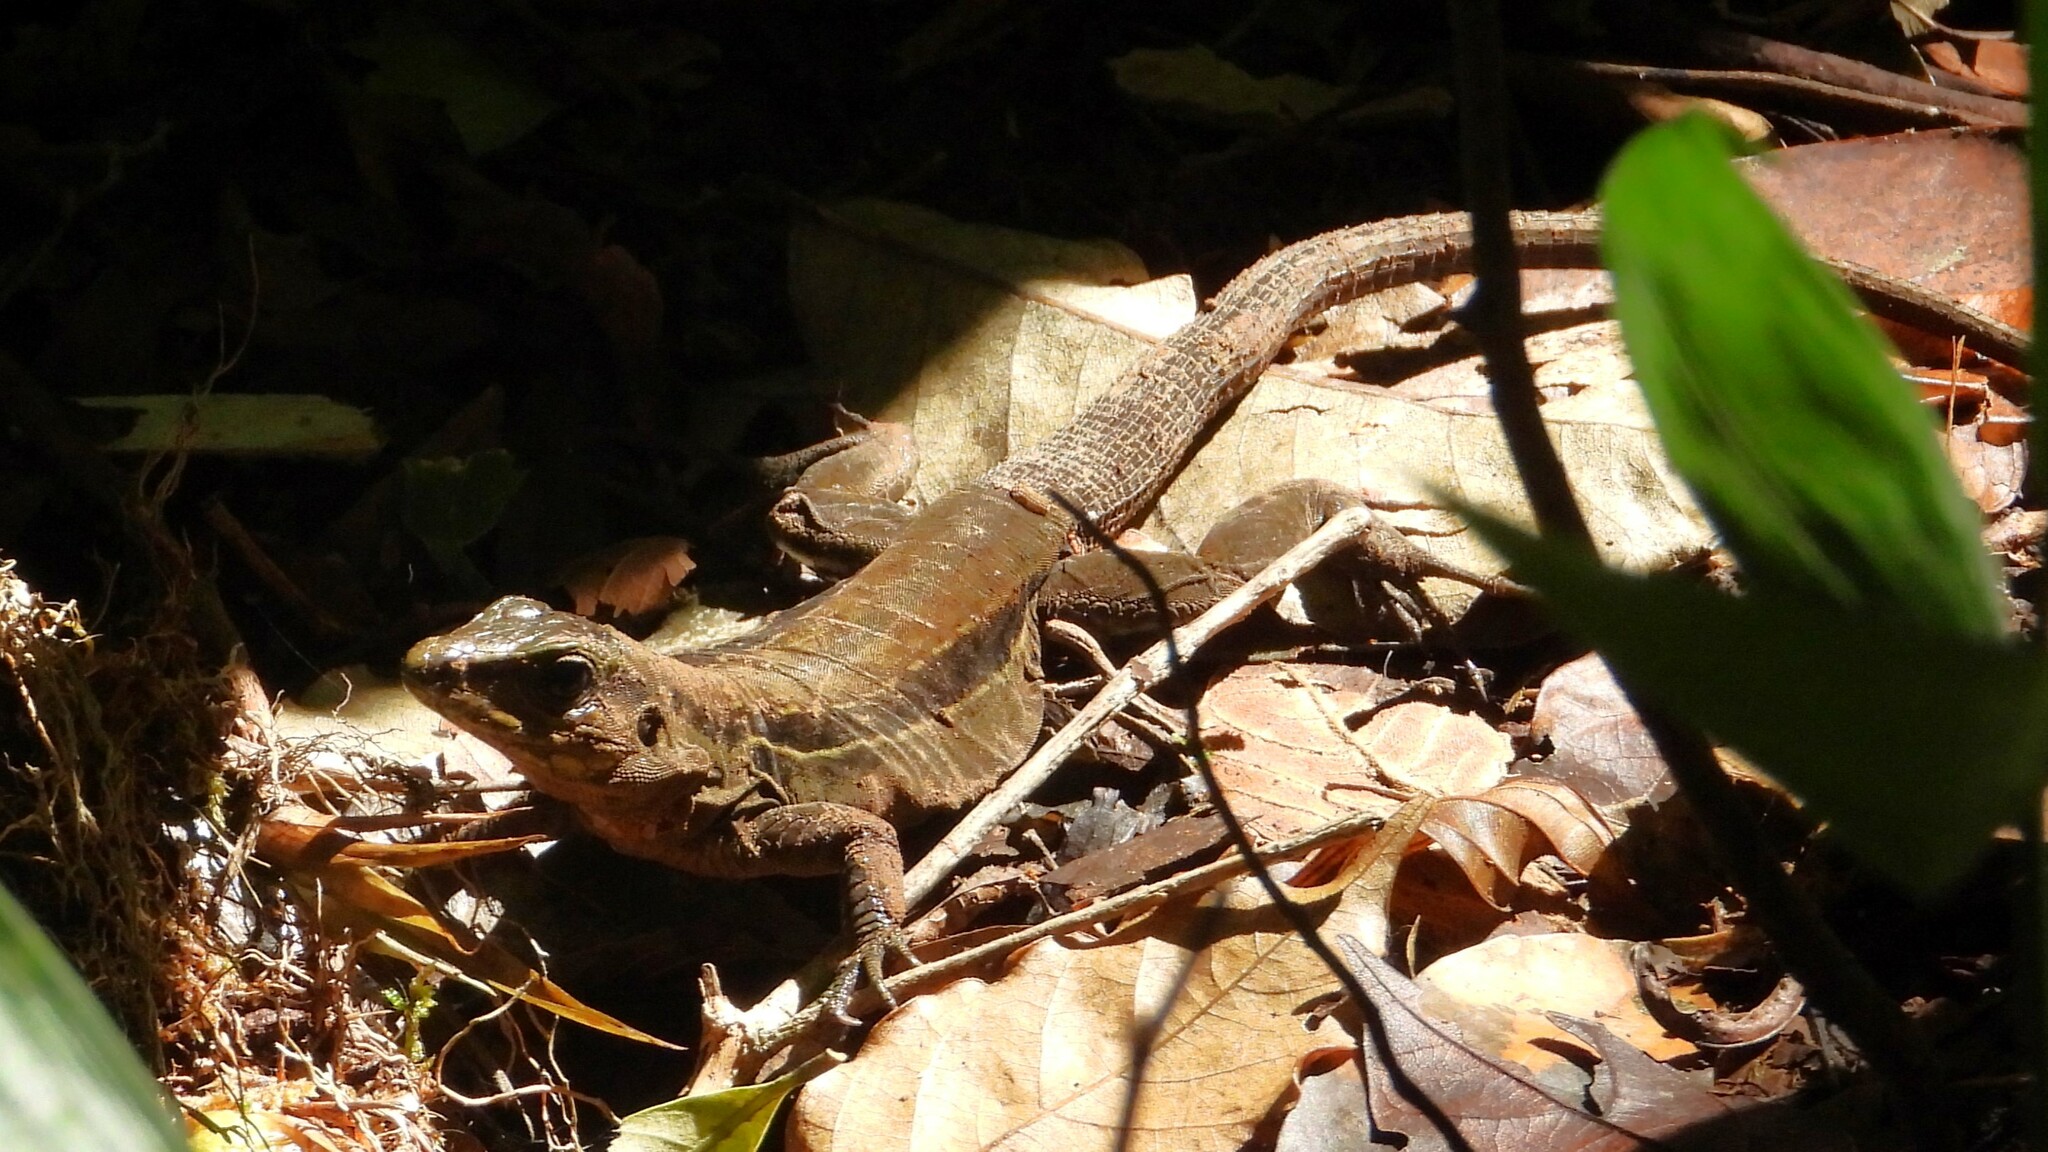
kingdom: Animalia
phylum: Chordata
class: Squamata
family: Teiidae
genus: Holcosus
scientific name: Holcosus festivus
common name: Middle american ameiva
